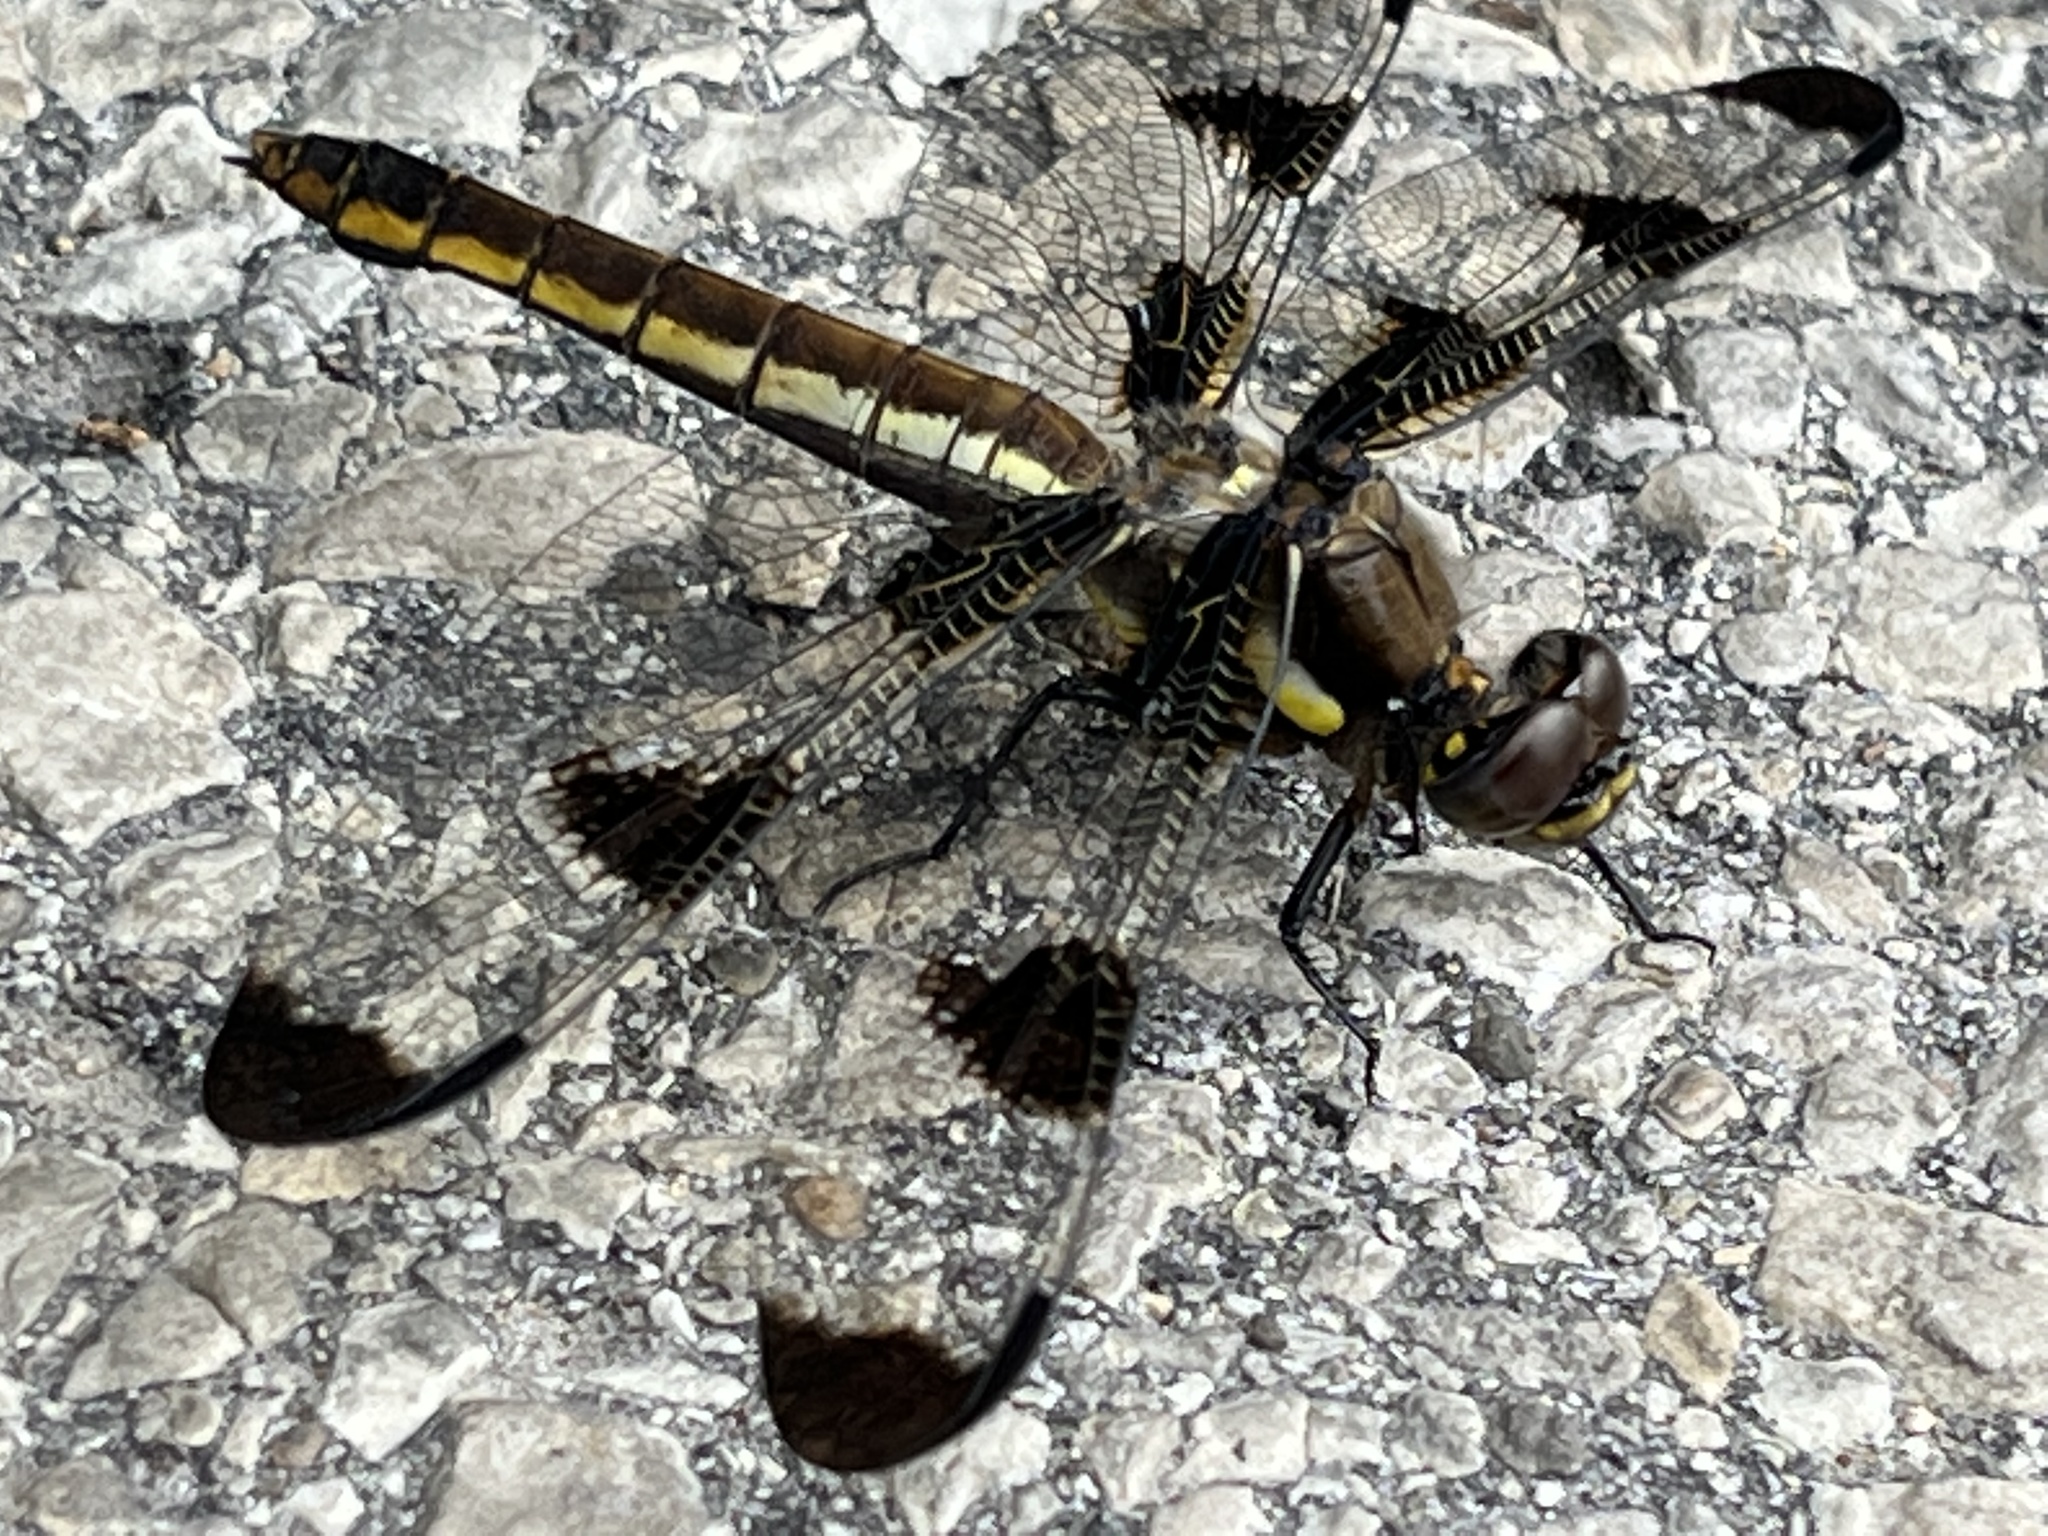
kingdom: Animalia
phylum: Arthropoda
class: Insecta
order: Odonata
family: Libellulidae
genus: Libellula
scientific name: Libellula pulchella
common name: Twelve-spotted skimmer
